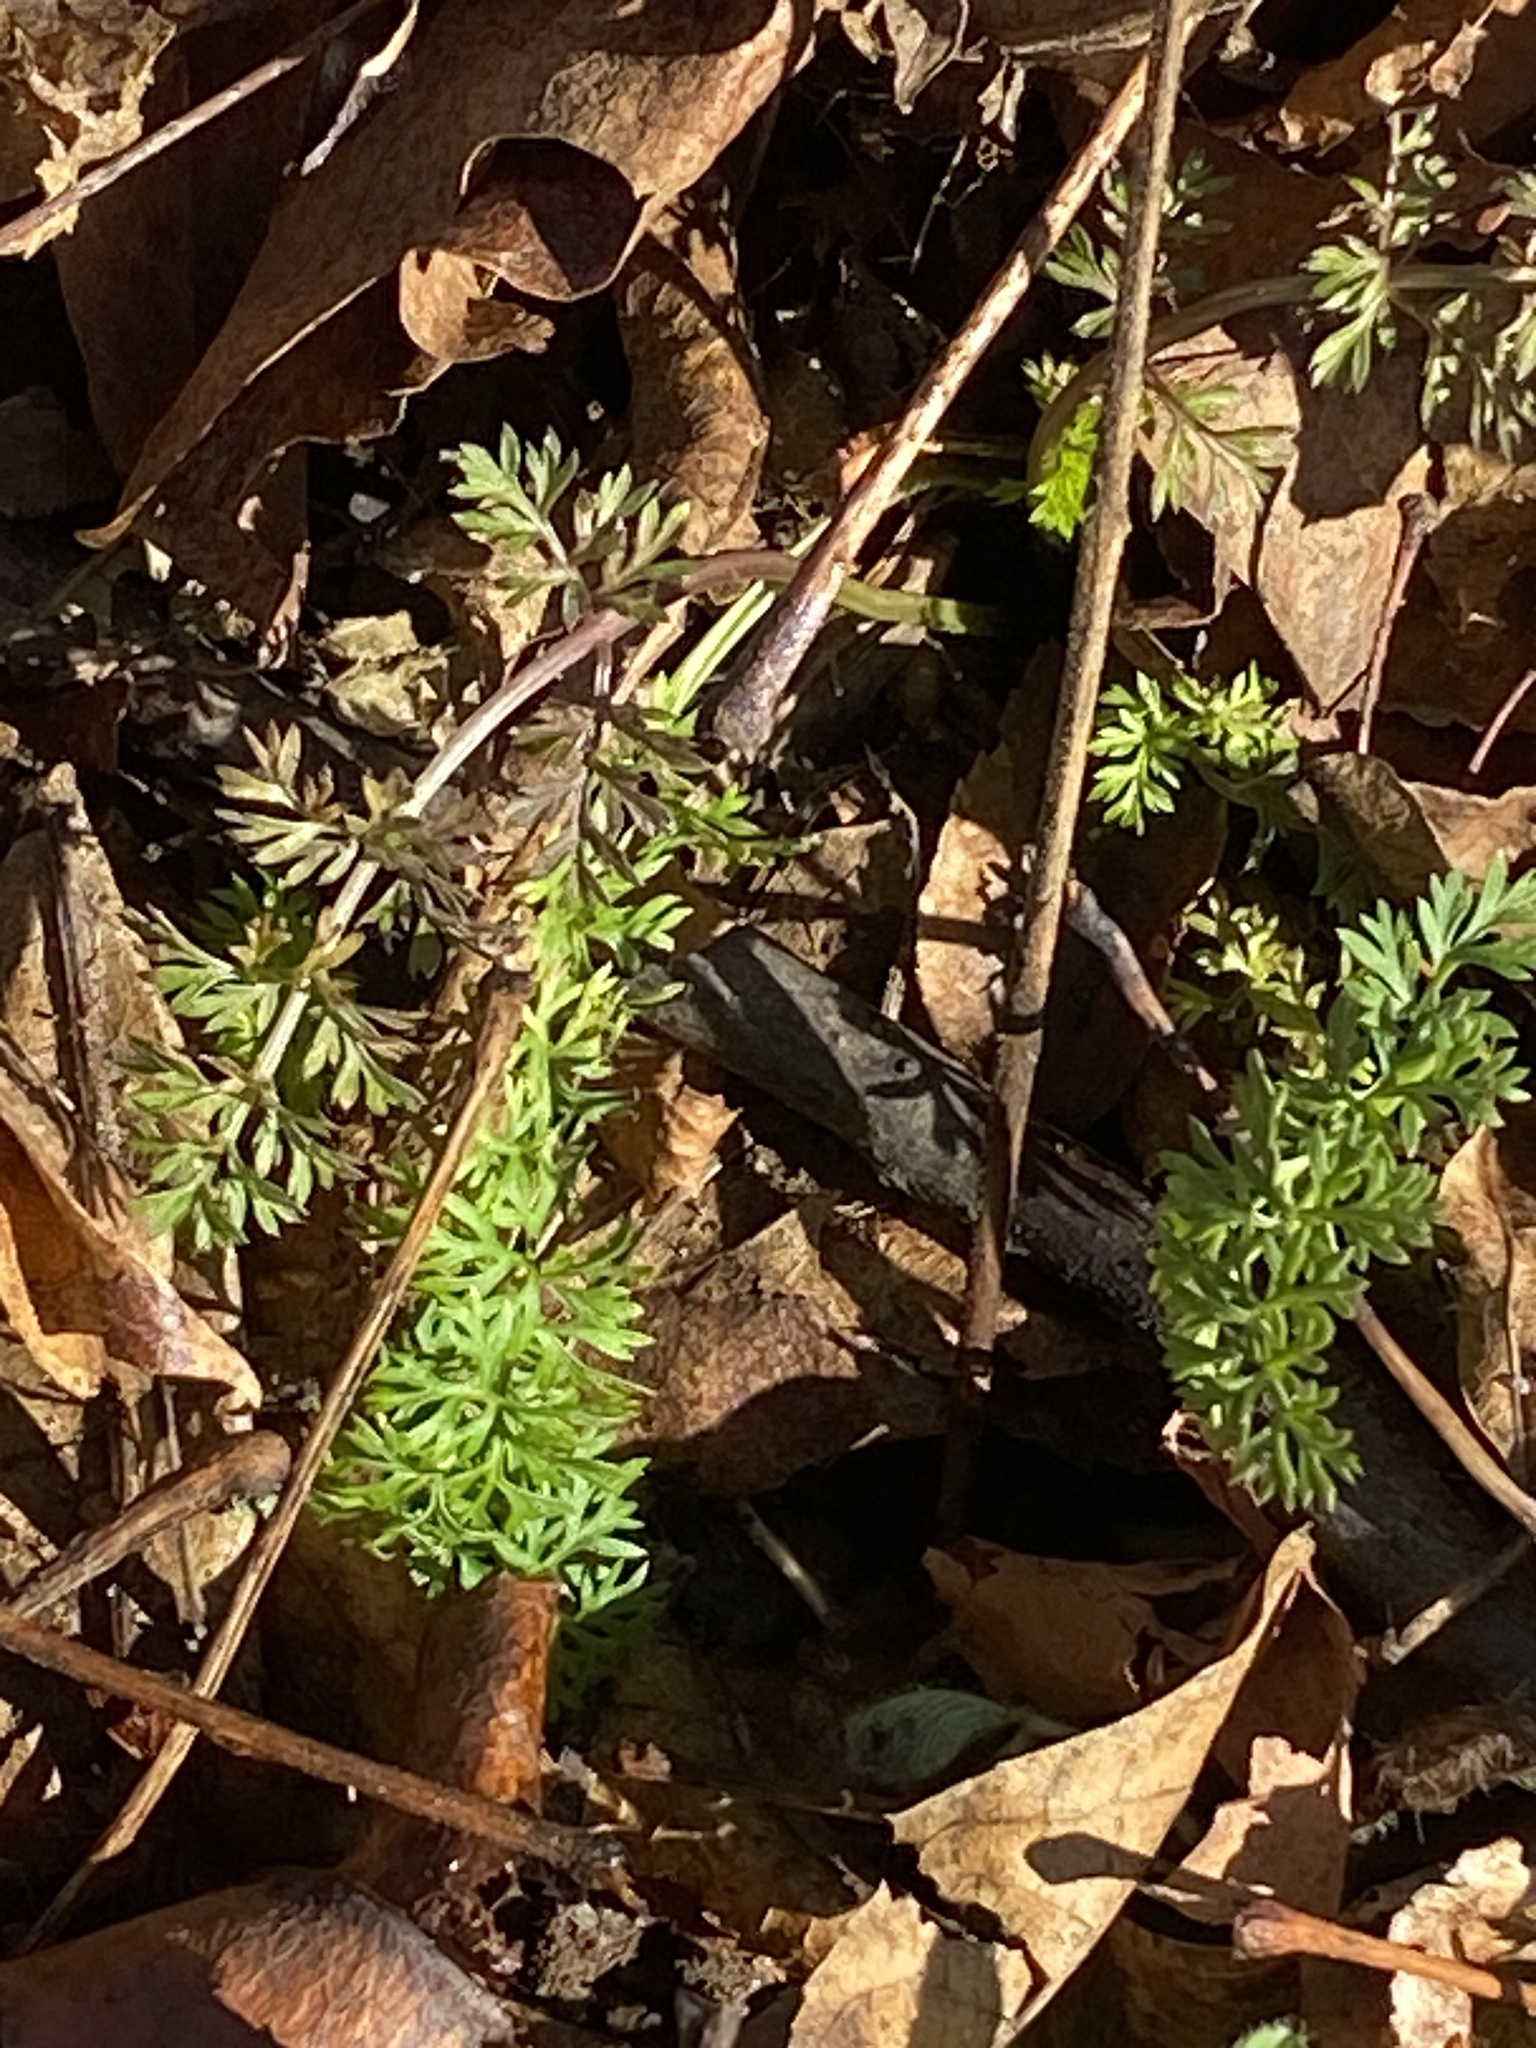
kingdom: Plantae
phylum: Tracheophyta
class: Magnoliopsida
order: Apiales
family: Apiaceae
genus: Daucus
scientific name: Daucus carota
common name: Wild carrot
